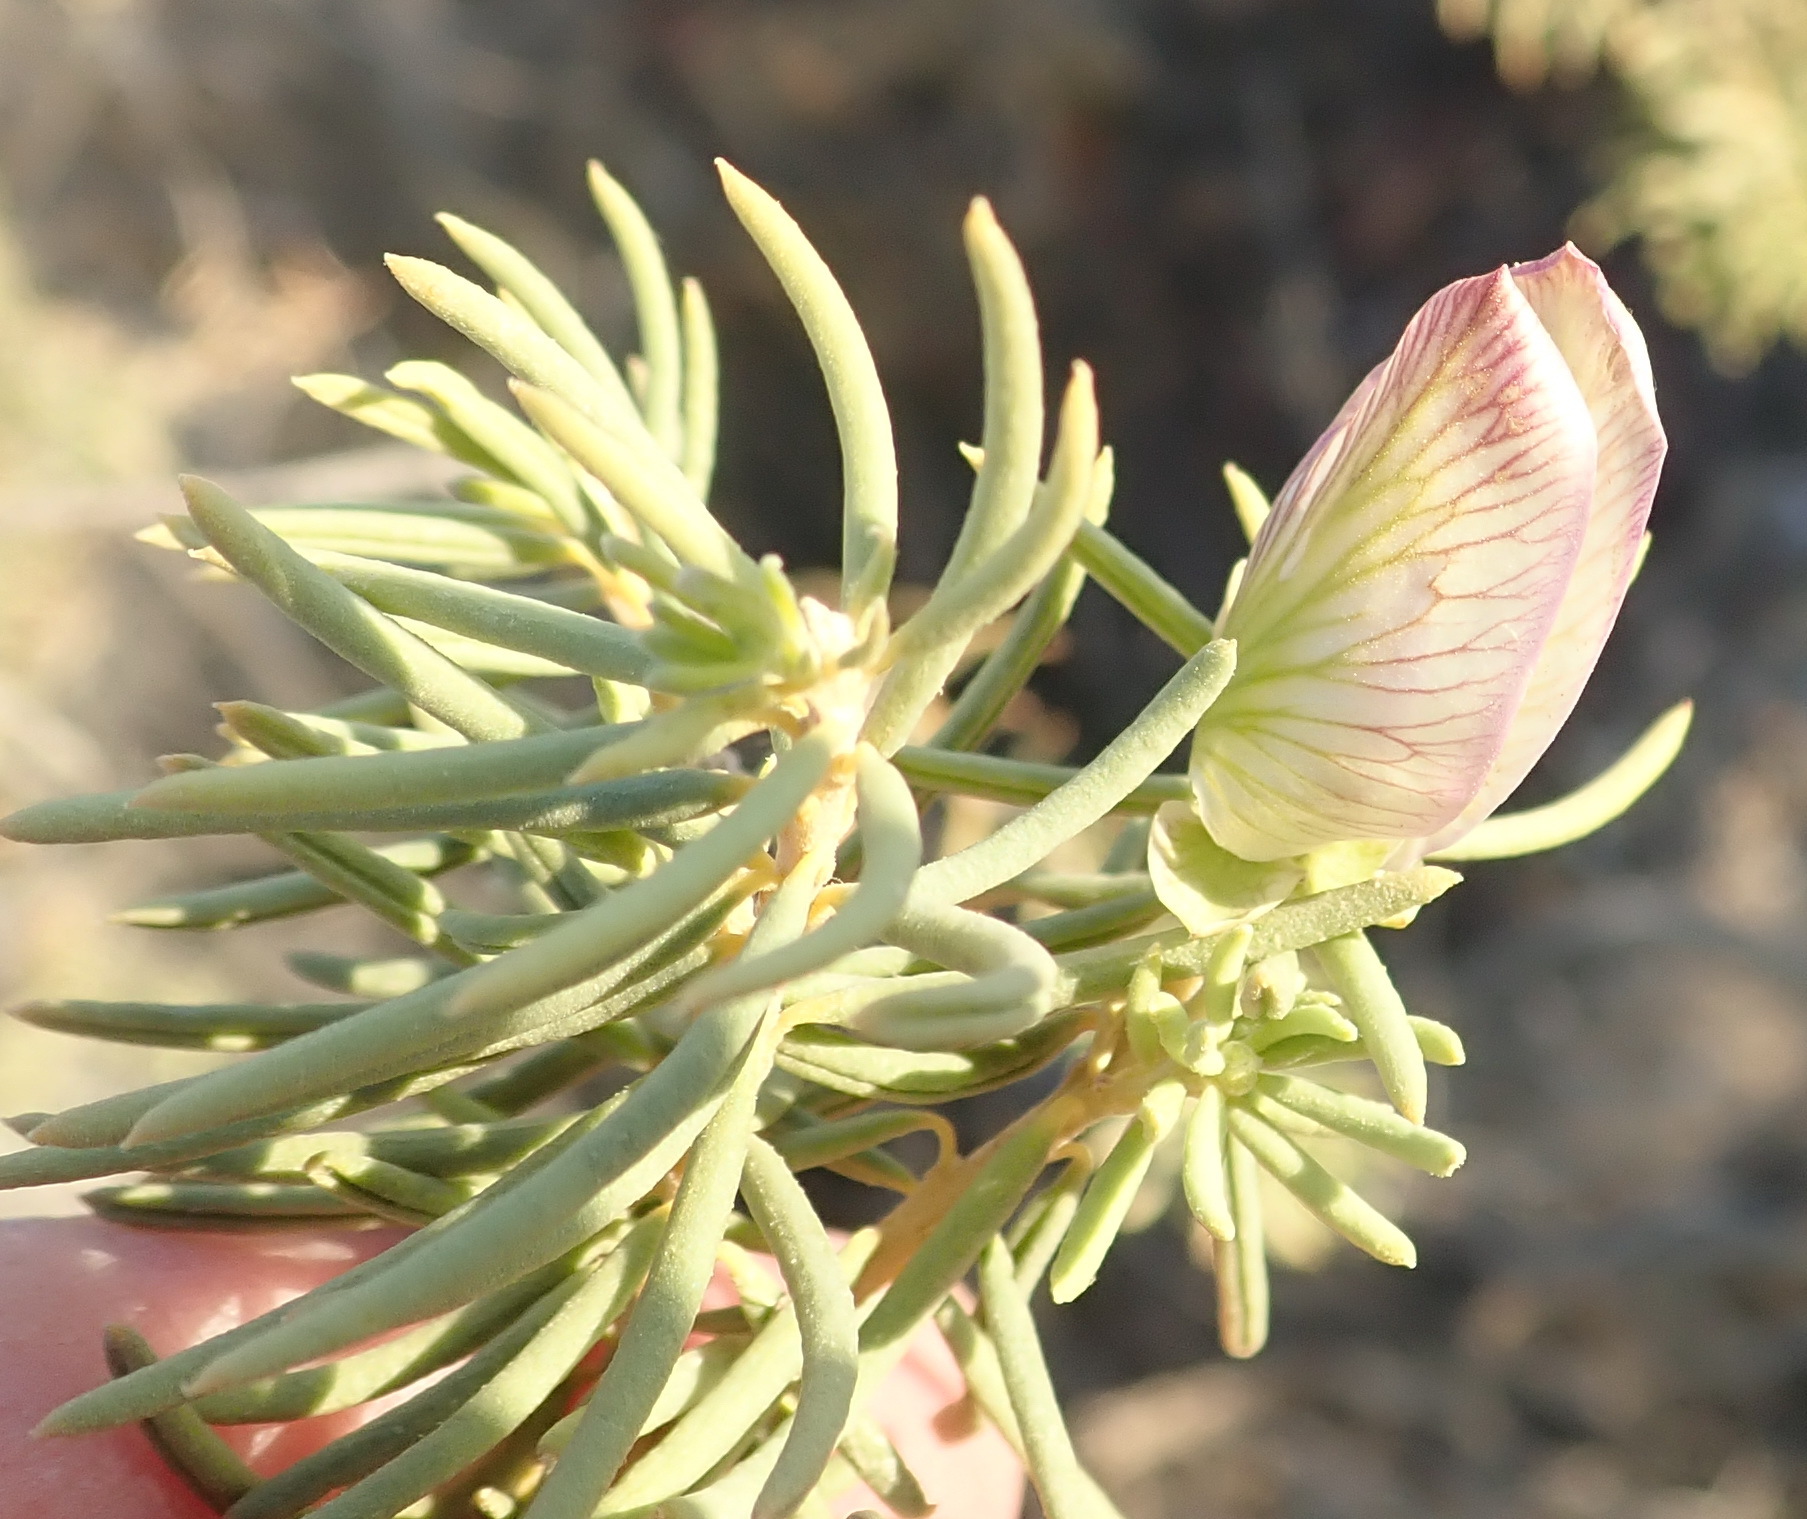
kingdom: Plantae
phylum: Tracheophyta
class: Magnoliopsida
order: Fabales
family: Polygalaceae
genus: Polygala
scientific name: Polygala myrtifolia
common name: Myrtle-leaf milkwort
